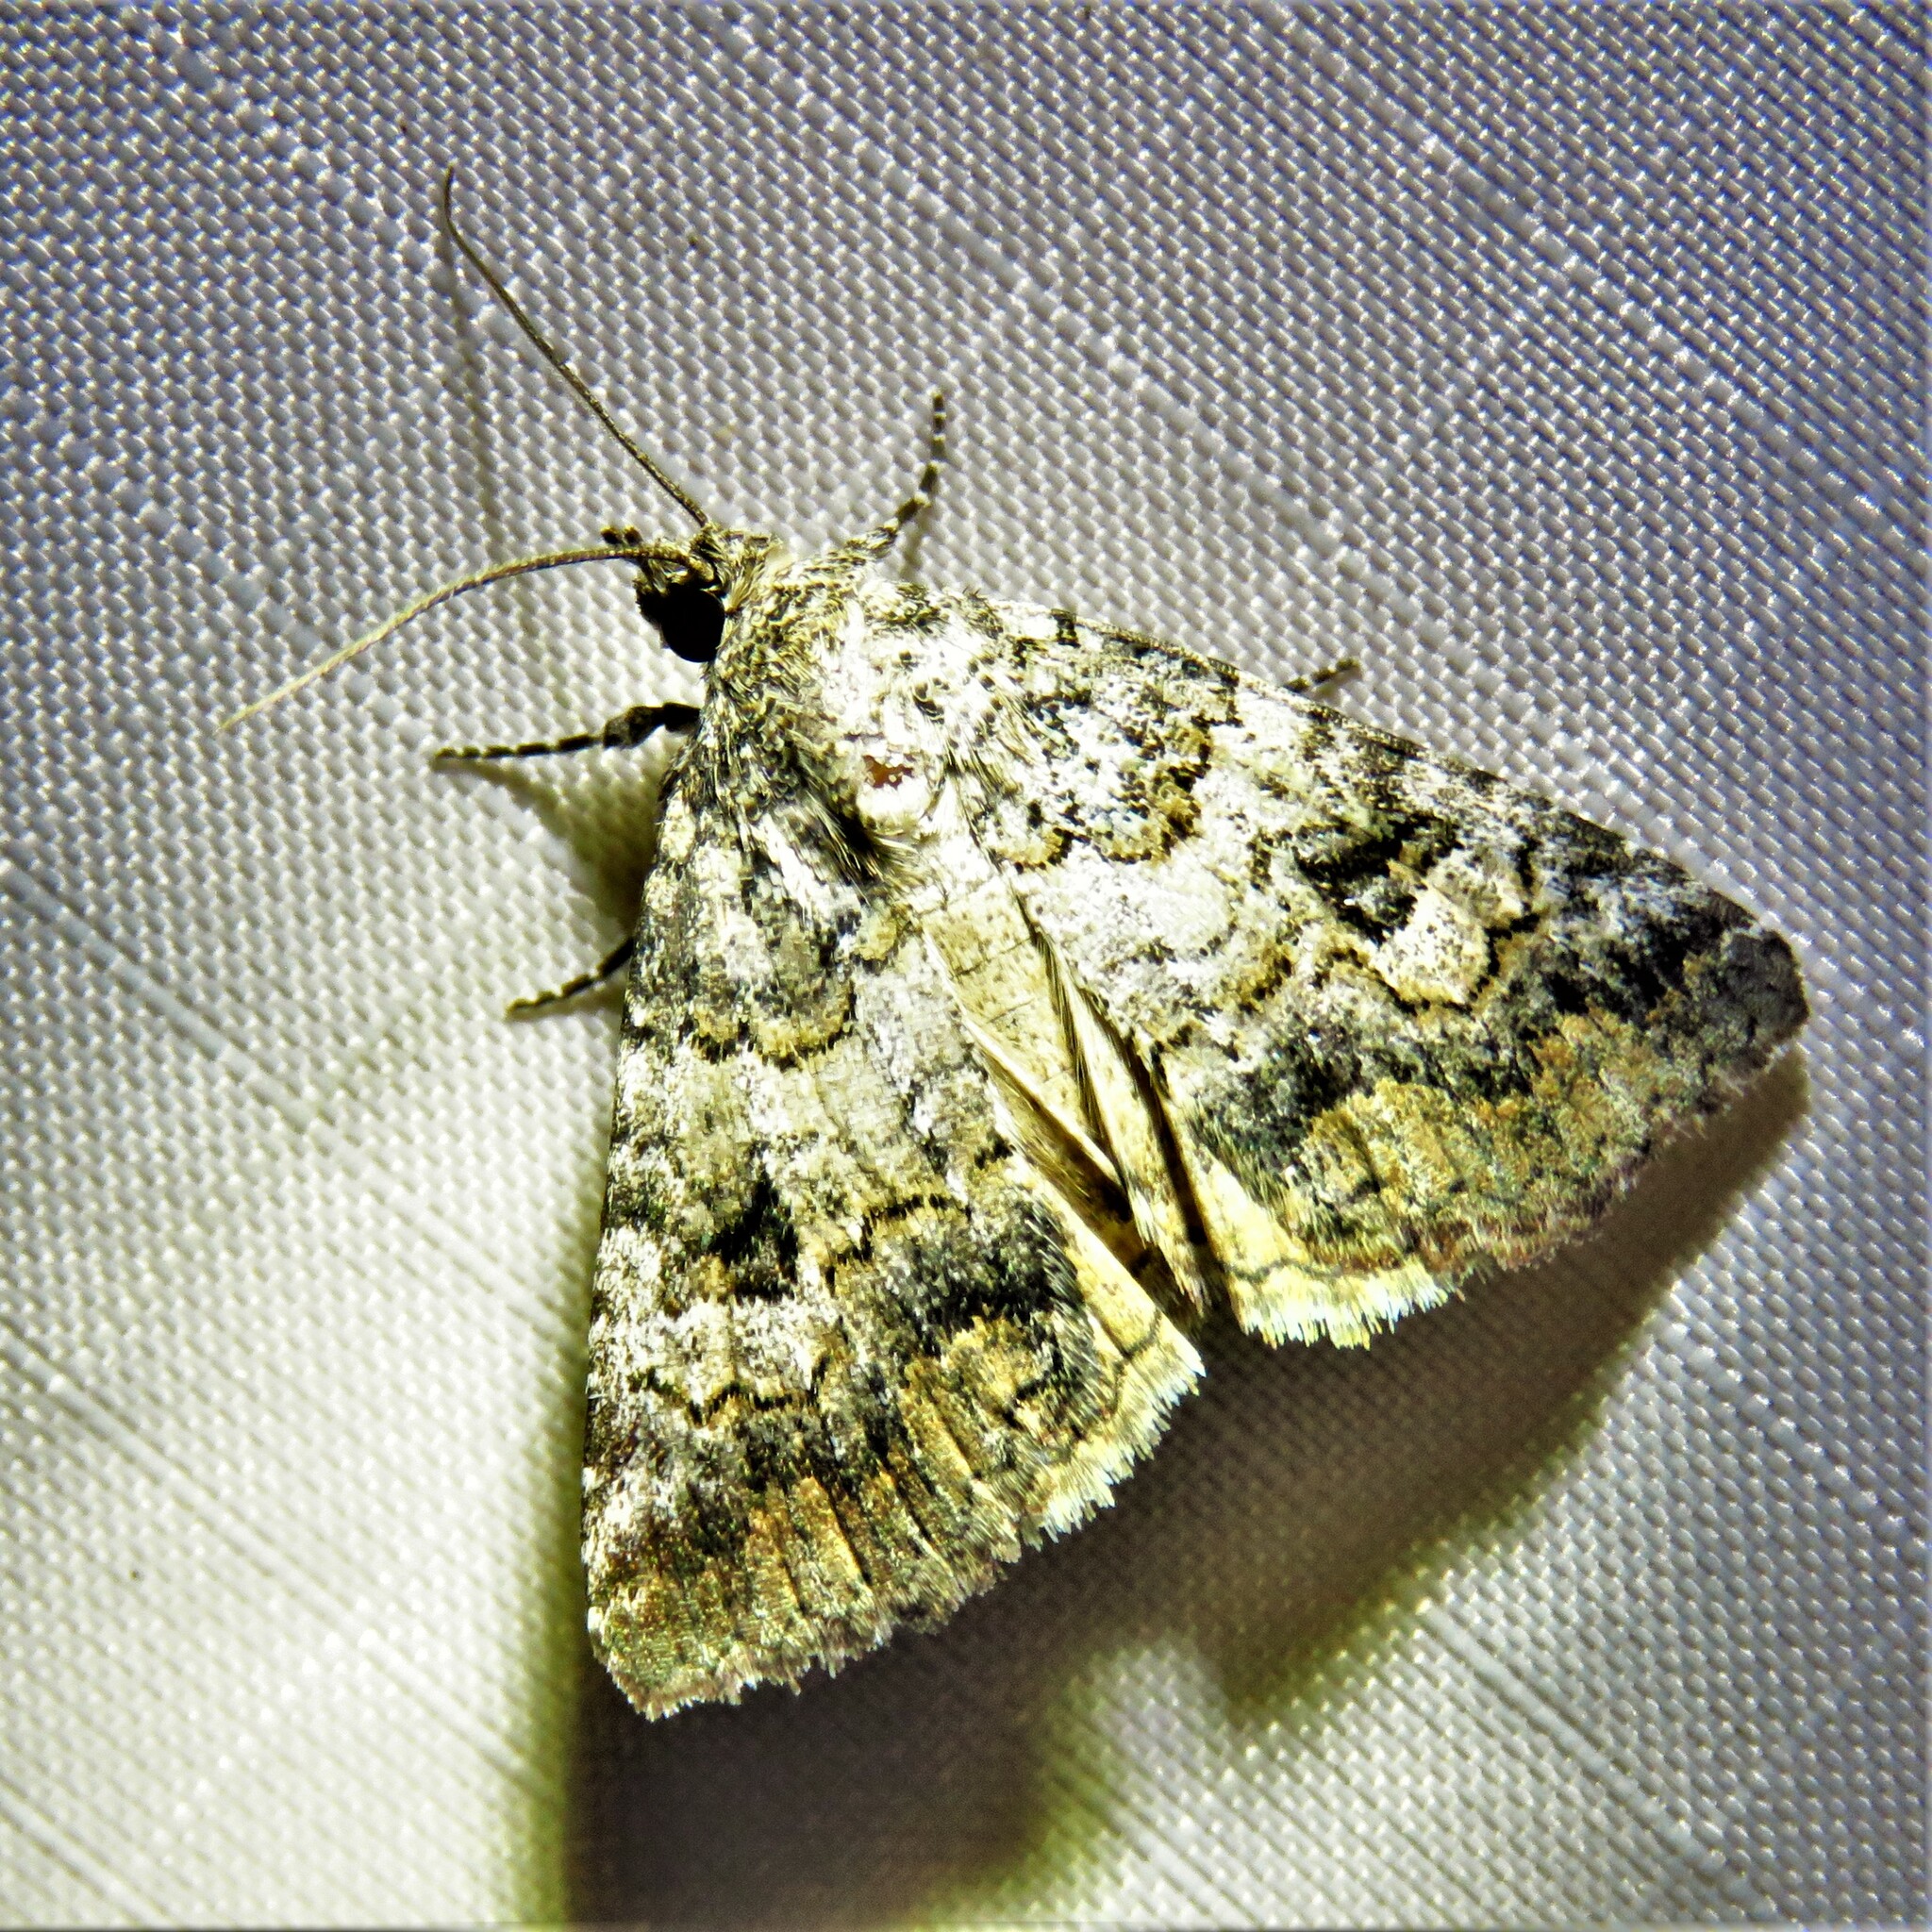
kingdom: Animalia
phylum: Arthropoda
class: Insecta
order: Lepidoptera
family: Erebidae
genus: Eubolina
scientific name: Eubolina impartialis
